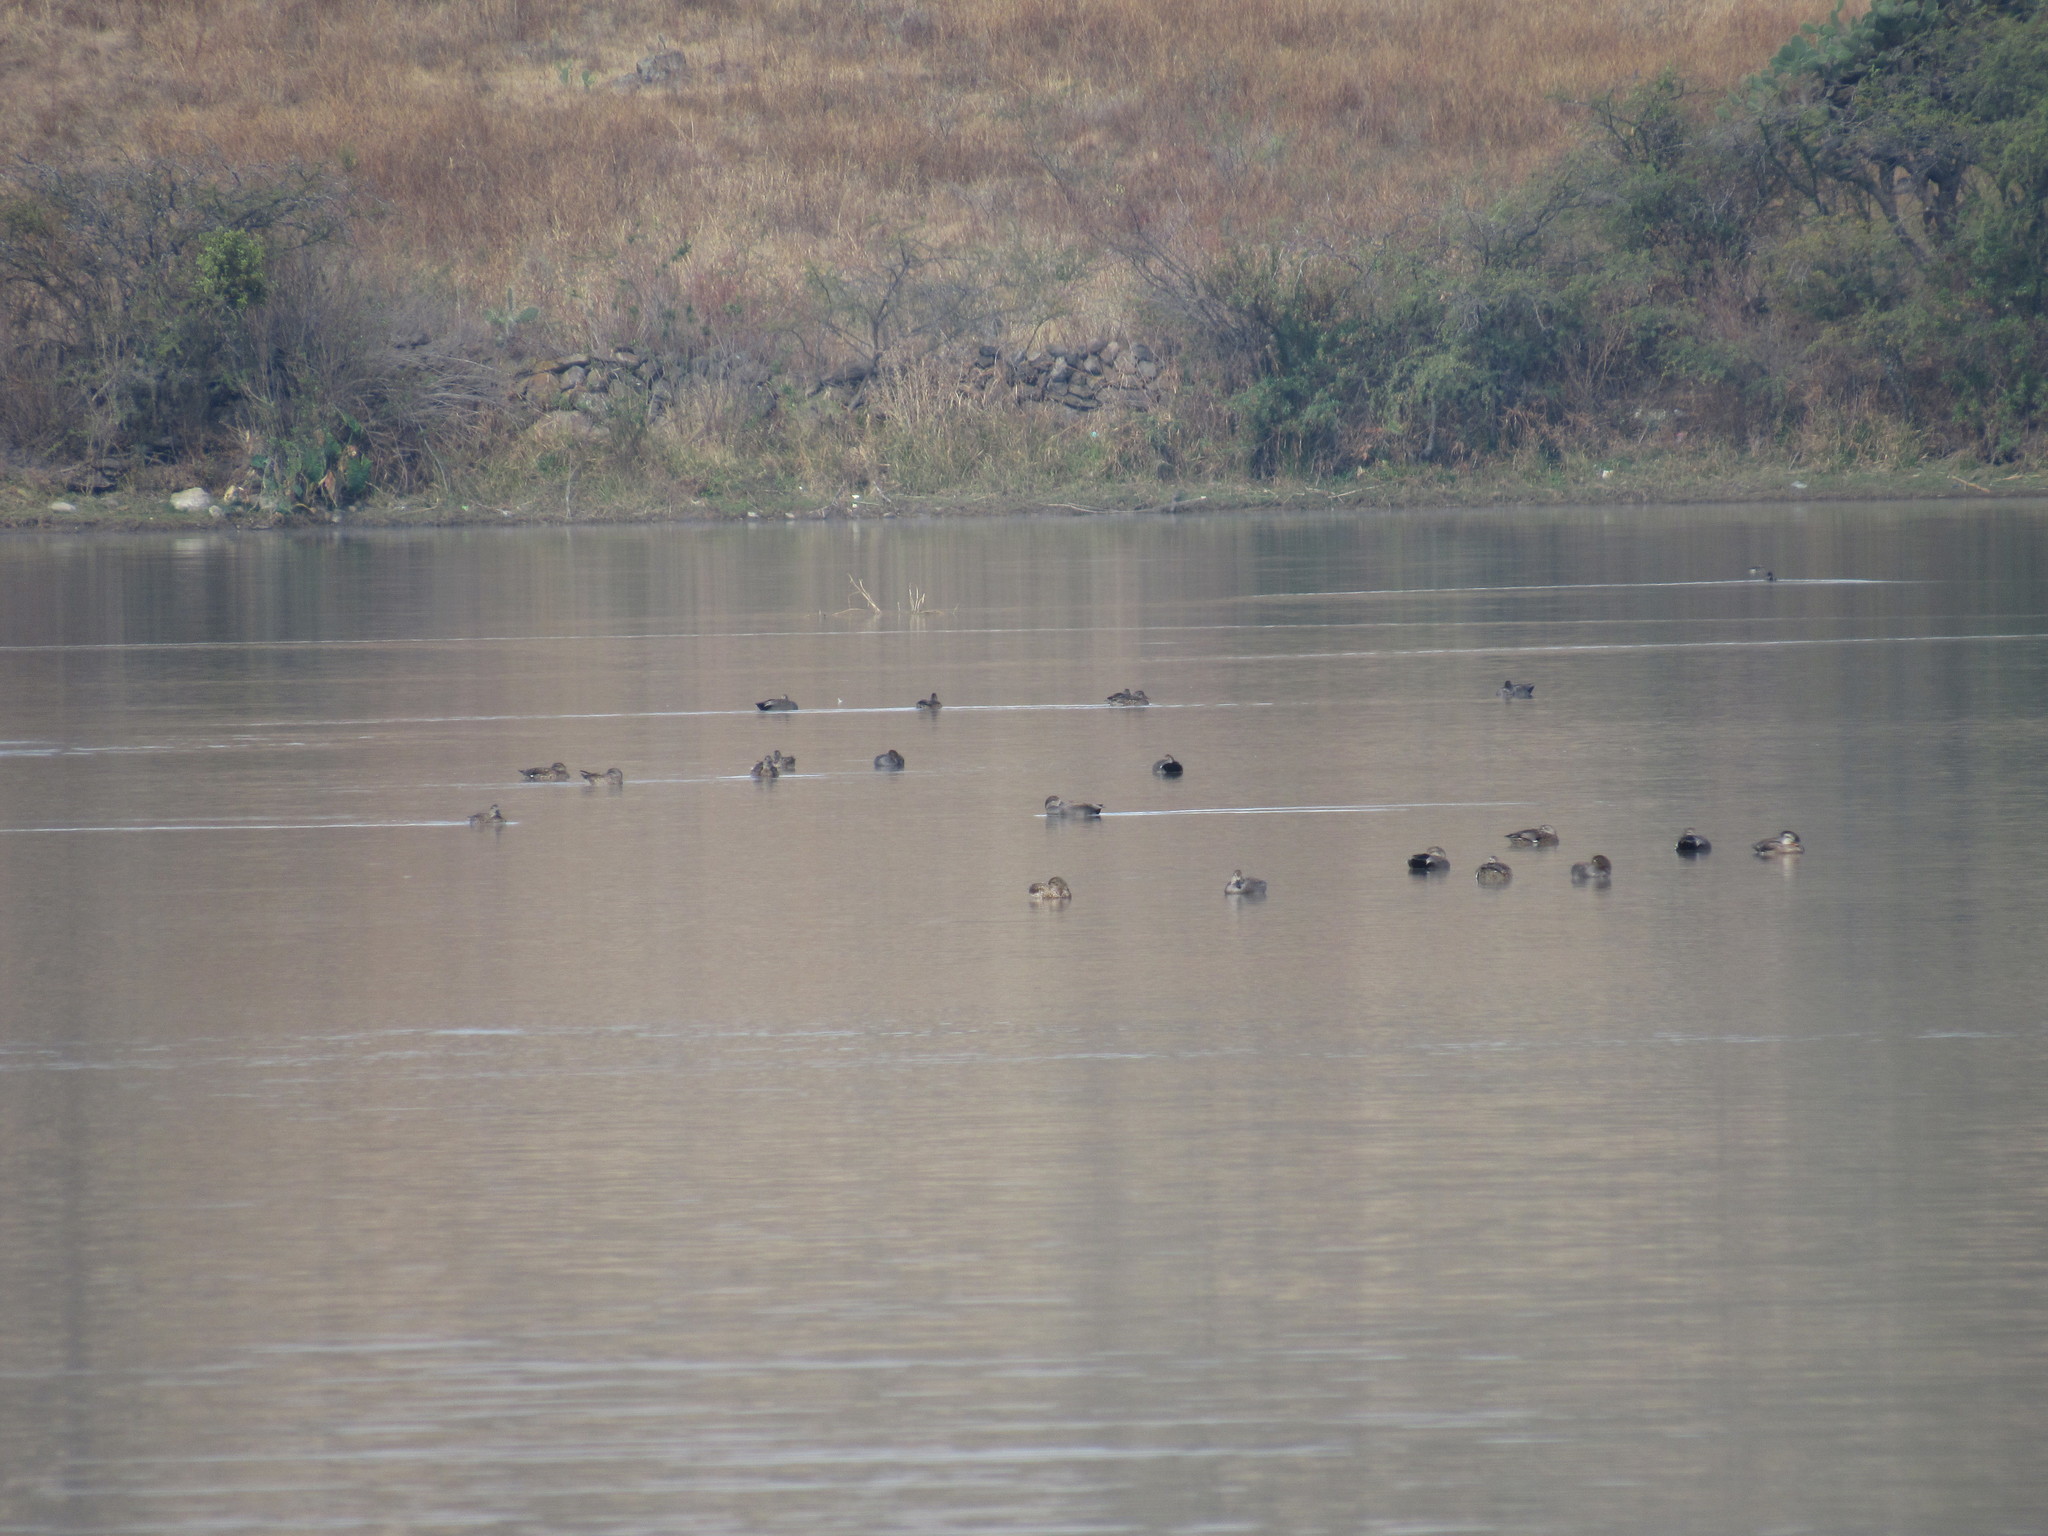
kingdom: Animalia
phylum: Chordata
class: Aves
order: Anseriformes
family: Anatidae
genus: Mareca
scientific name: Mareca strepera
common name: Gadwall
